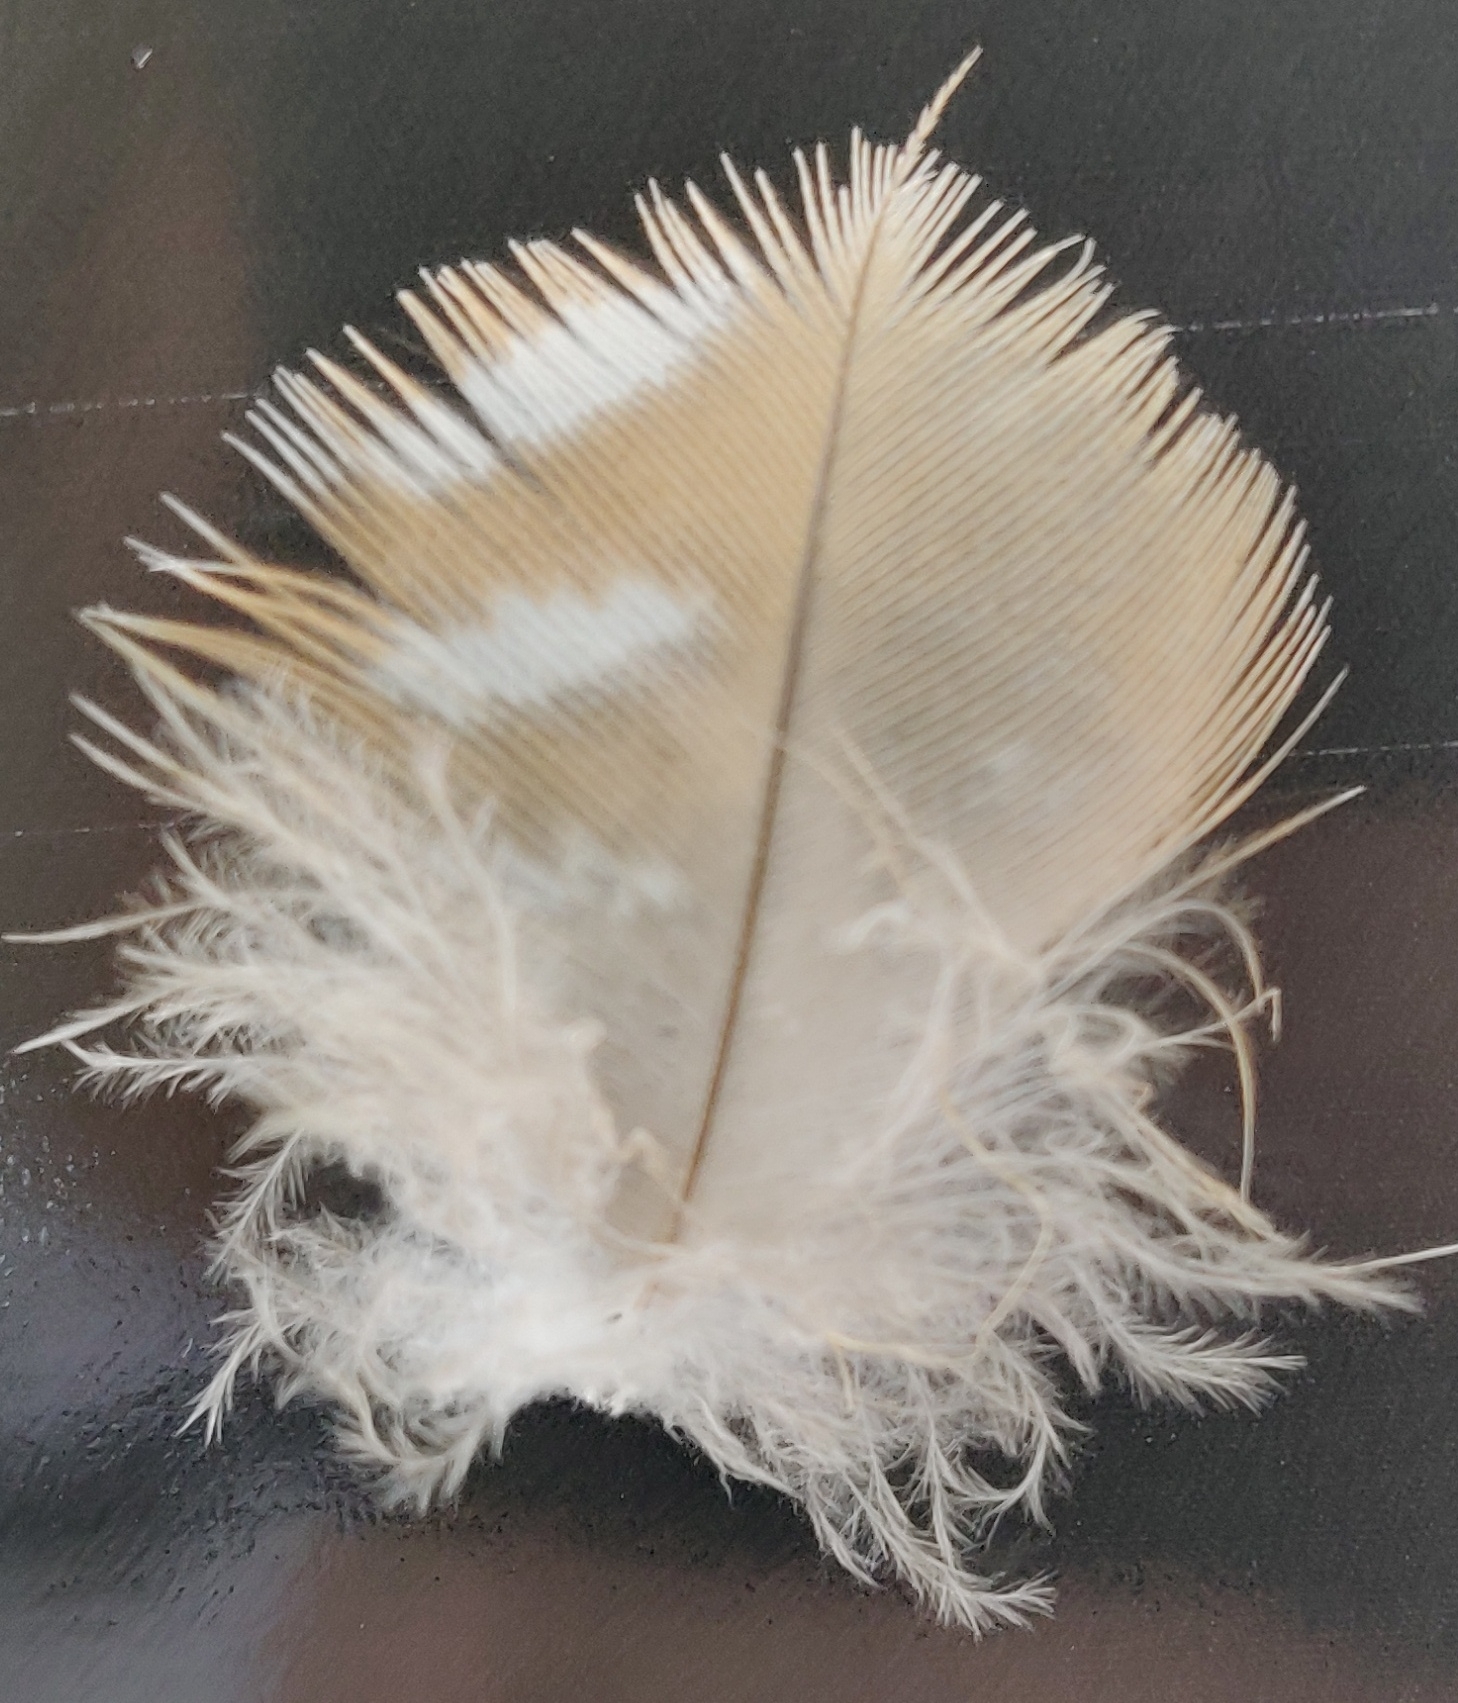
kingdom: Animalia
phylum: Chordata
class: Aves
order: Accipitriformes
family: Accipitridae
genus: Buteo
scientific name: Buteo lineatus
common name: Red-shouldered hawk
